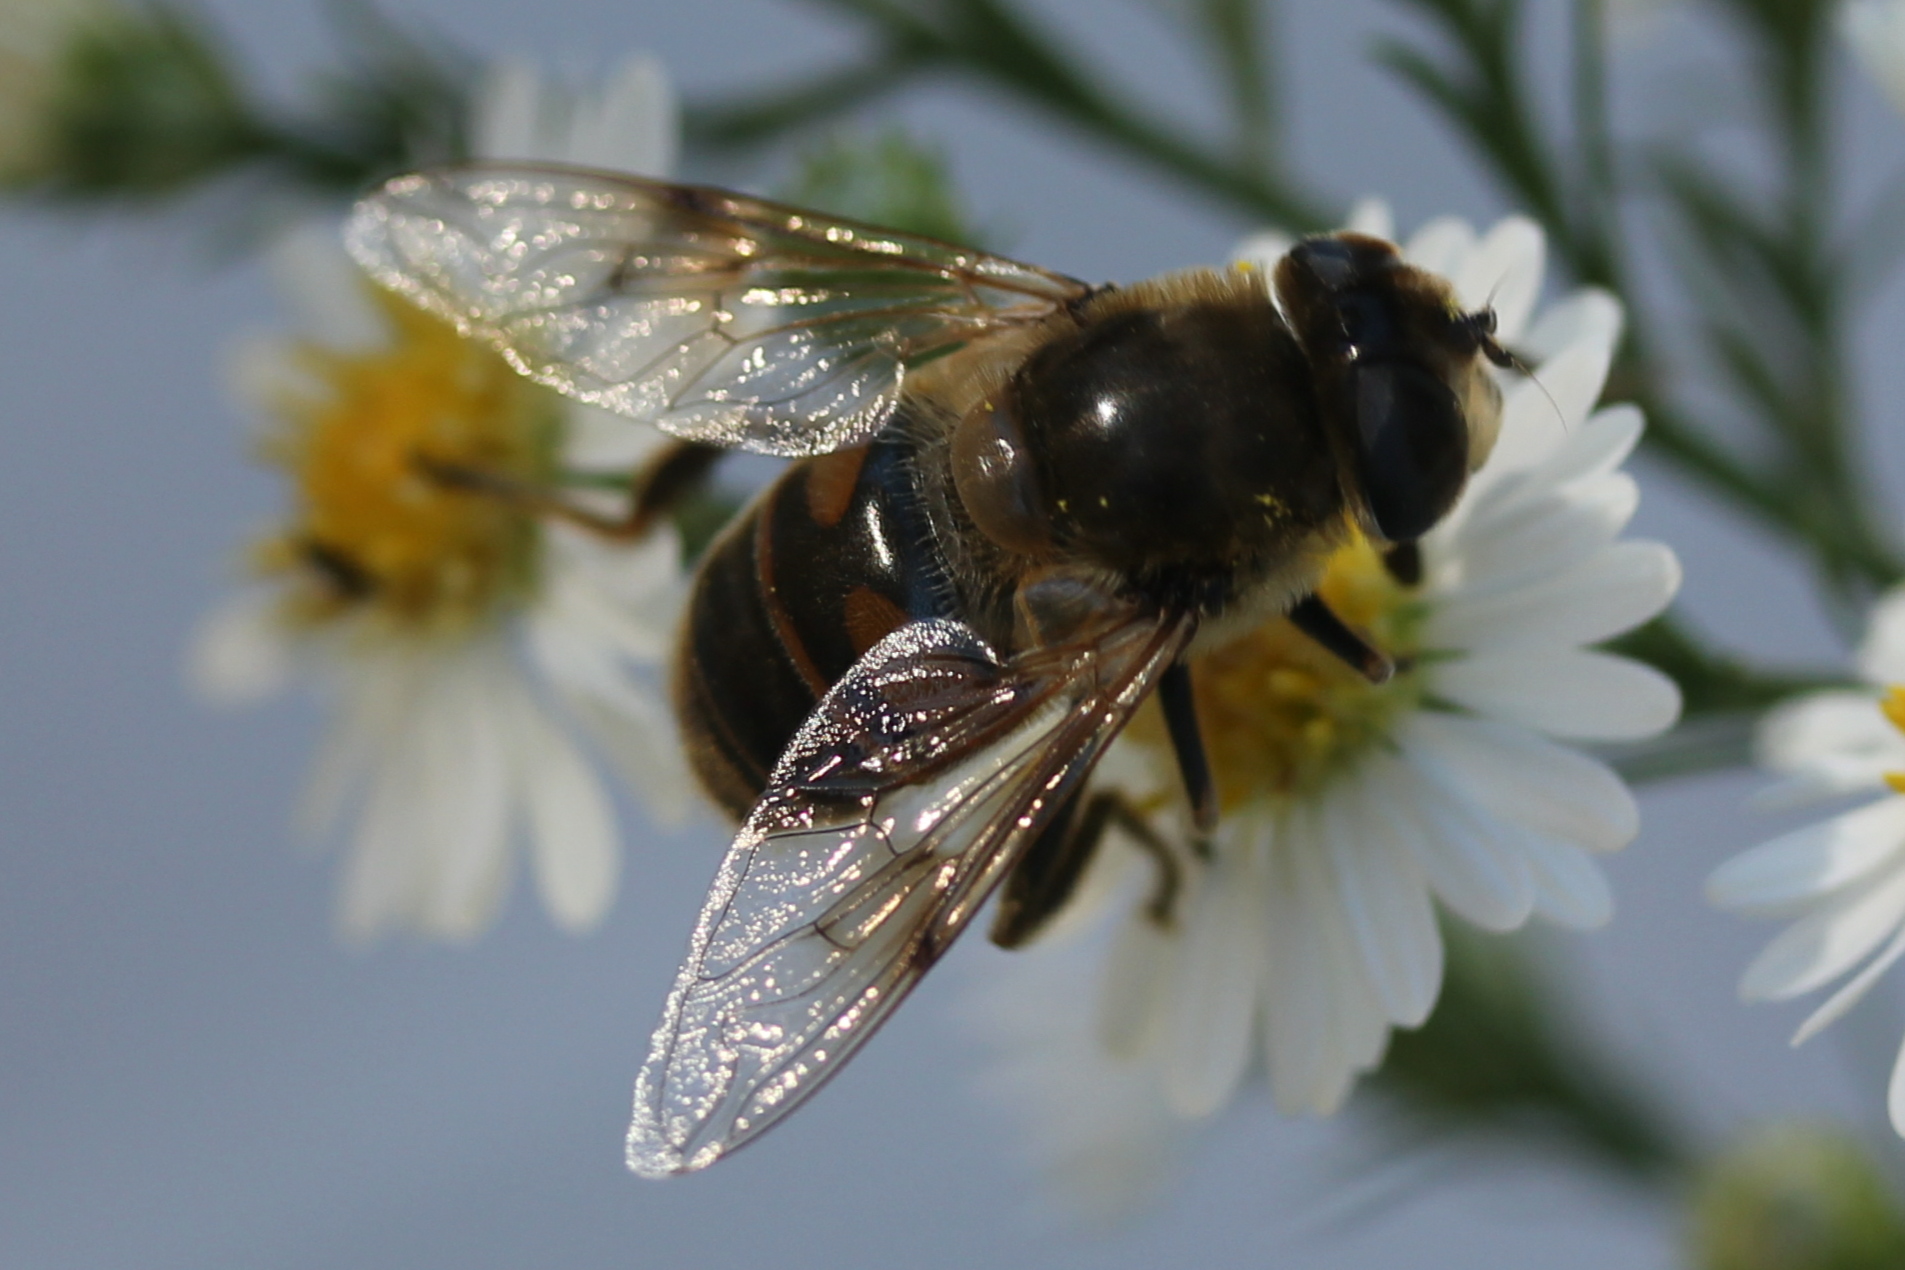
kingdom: Animalia
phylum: Arthropoda
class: Insecta
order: Diptera
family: Syrphidae
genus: Eristalis
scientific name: Eristalis tenax
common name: Drone fly
